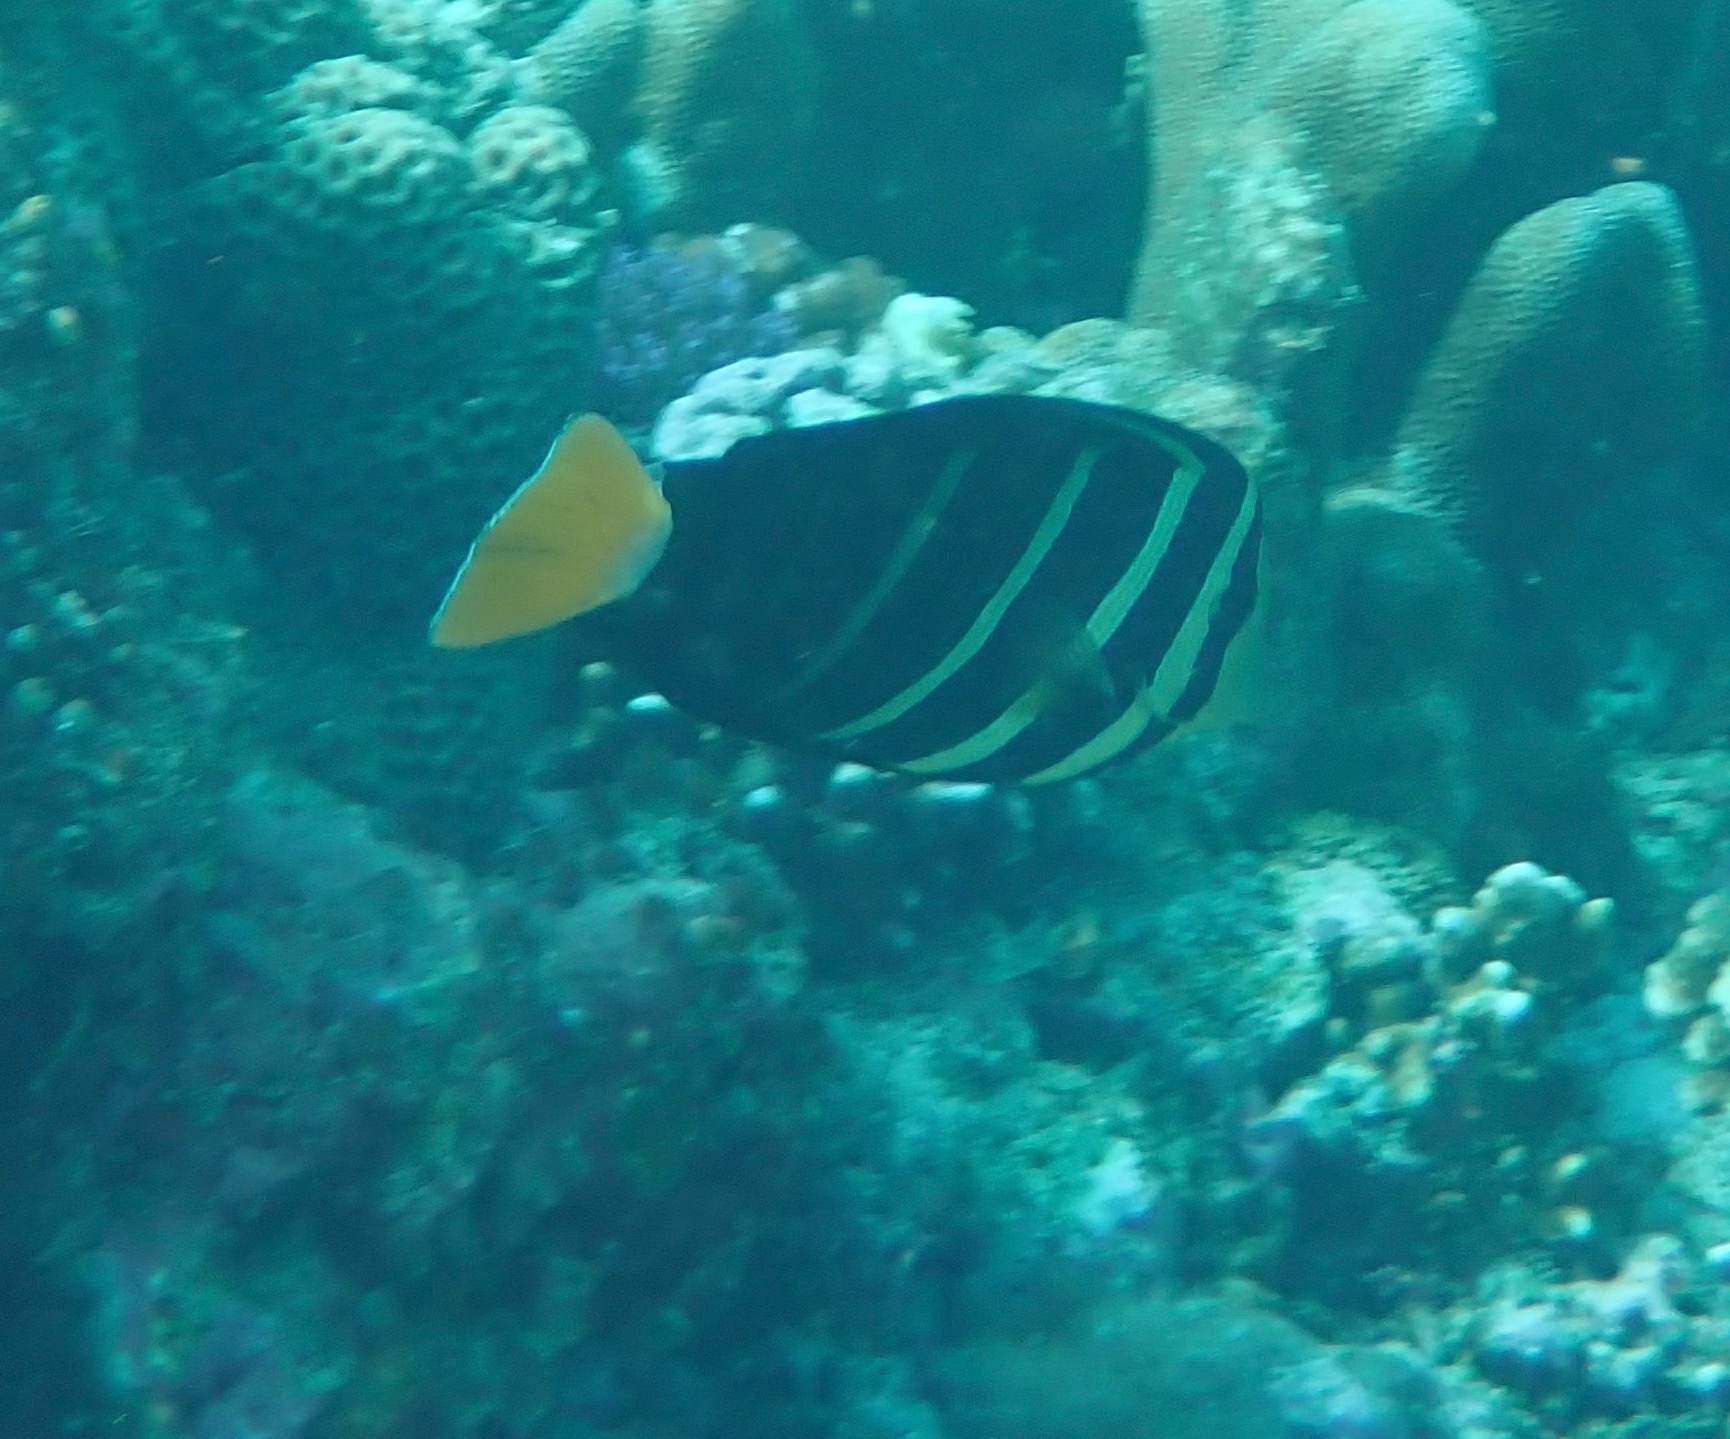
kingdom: Animalia
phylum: Chordata
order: Perciformes
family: Acanthuridae
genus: Zebrasoma
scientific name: Zebrasoma veliferum
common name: Sailfin surgeonfish
